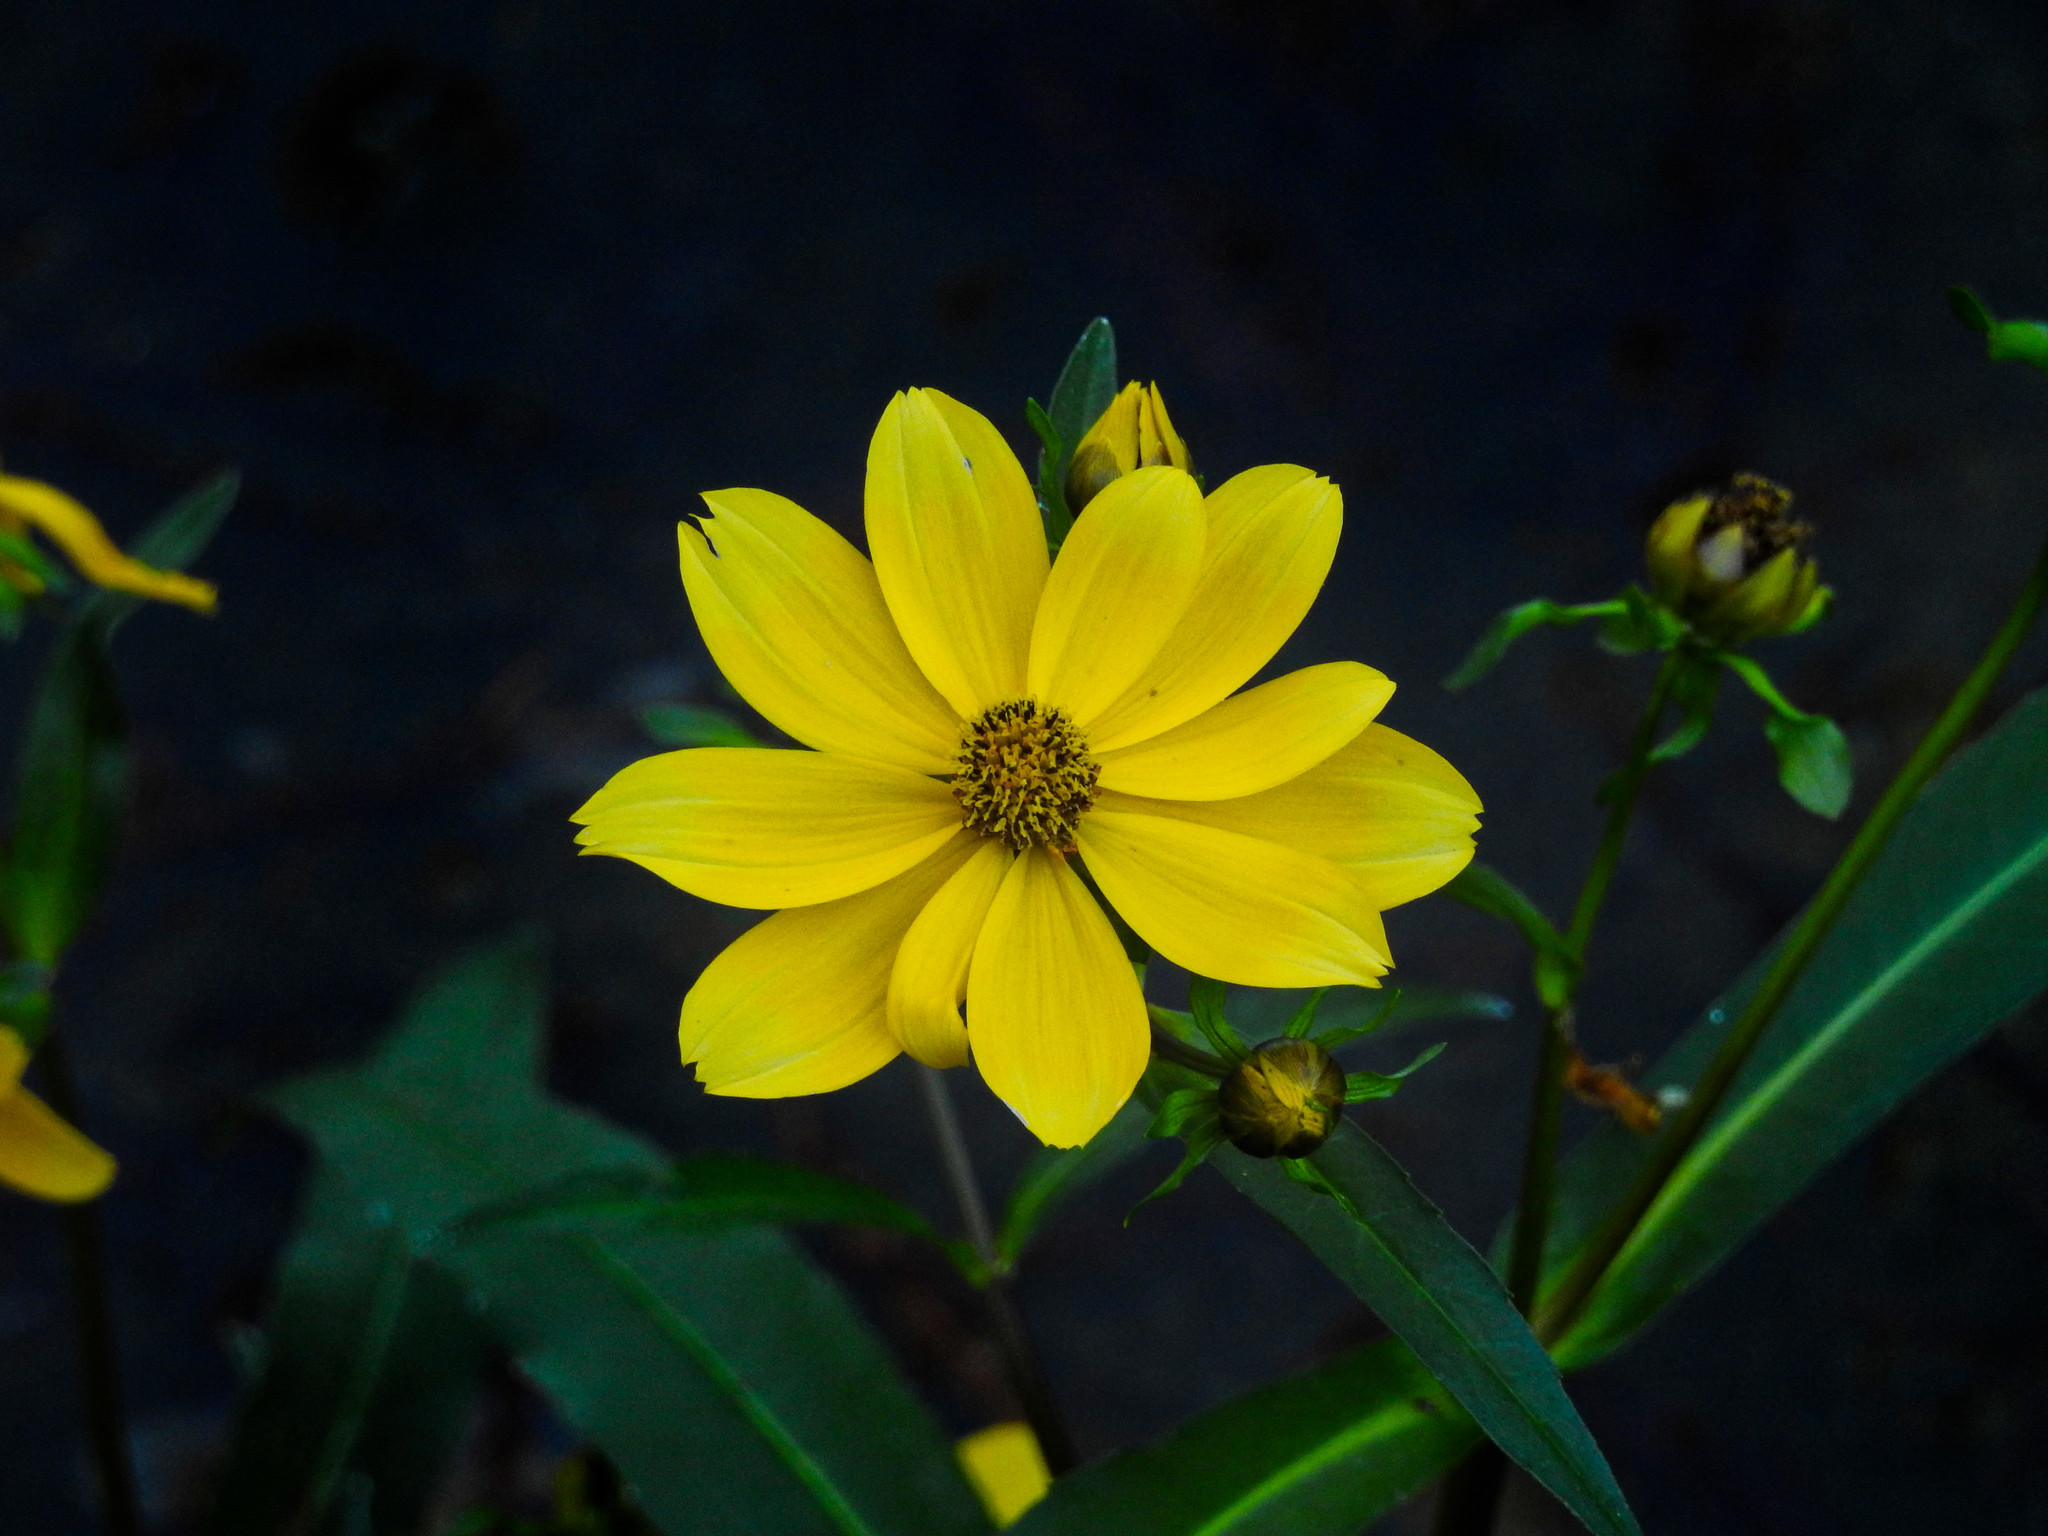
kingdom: Plantae
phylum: Tracheophyta
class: Magnoliopsida
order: Asterales
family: Asteraceae
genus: Bidens
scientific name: Bidens laevis
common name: Larger bur-marigold
